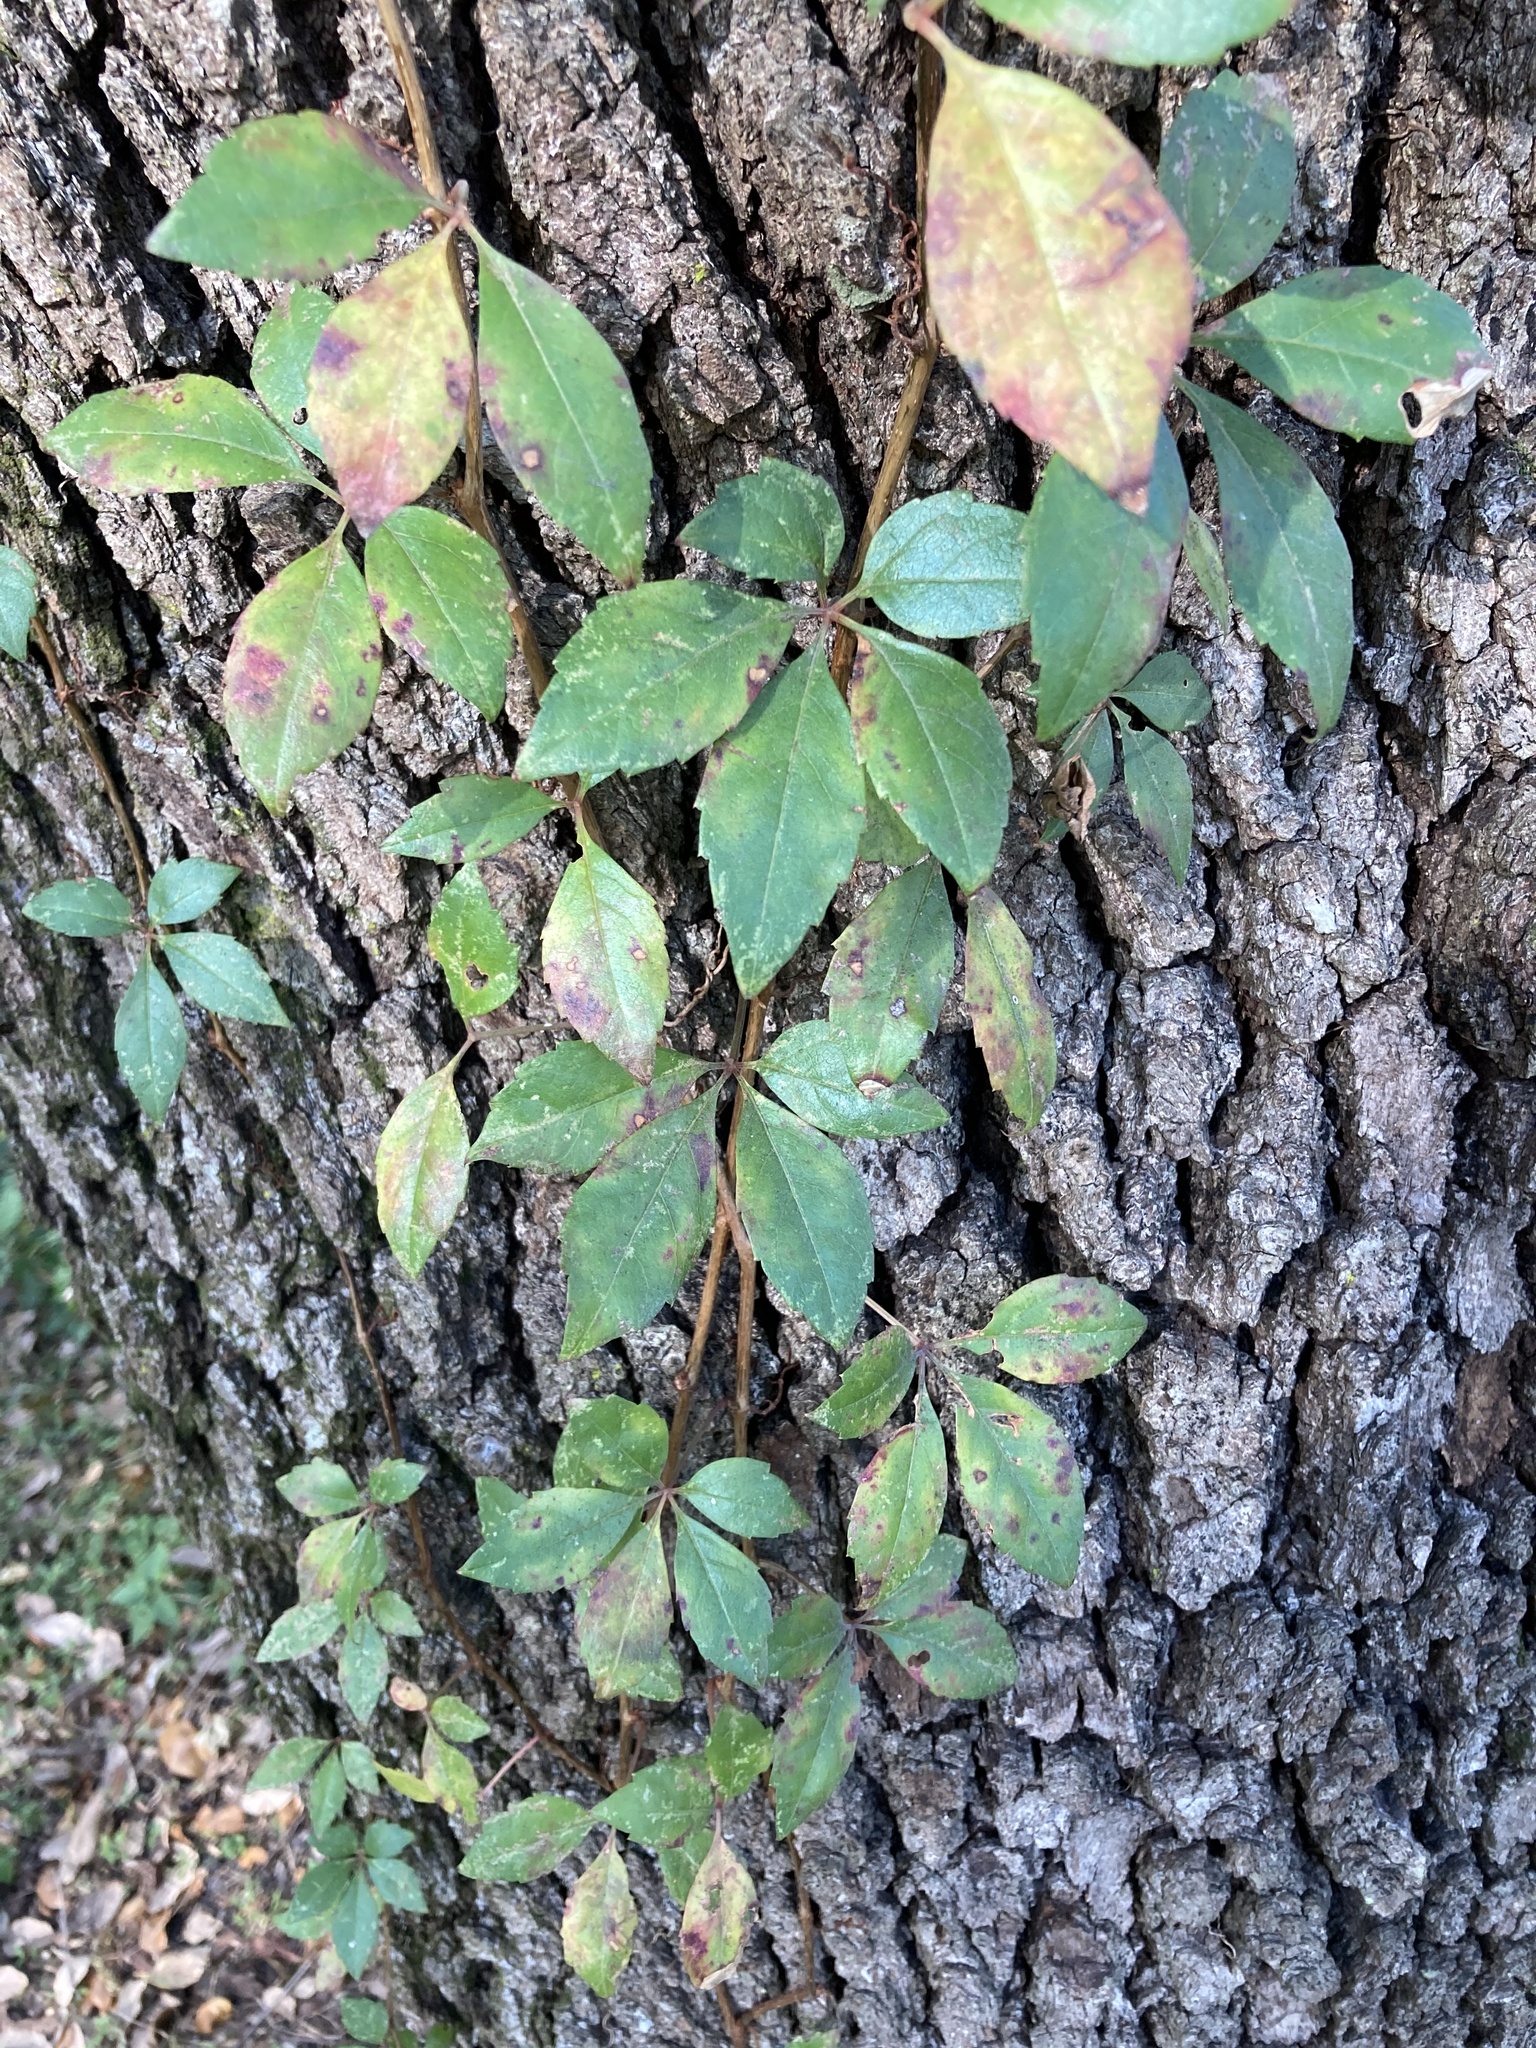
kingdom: Plantae
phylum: Tracheophyta
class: Magnoliopsida
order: Vitales
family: Vitaceae
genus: Parthenocissus
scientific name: Parthenocissus quinquefolia
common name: Virginia-creeper
